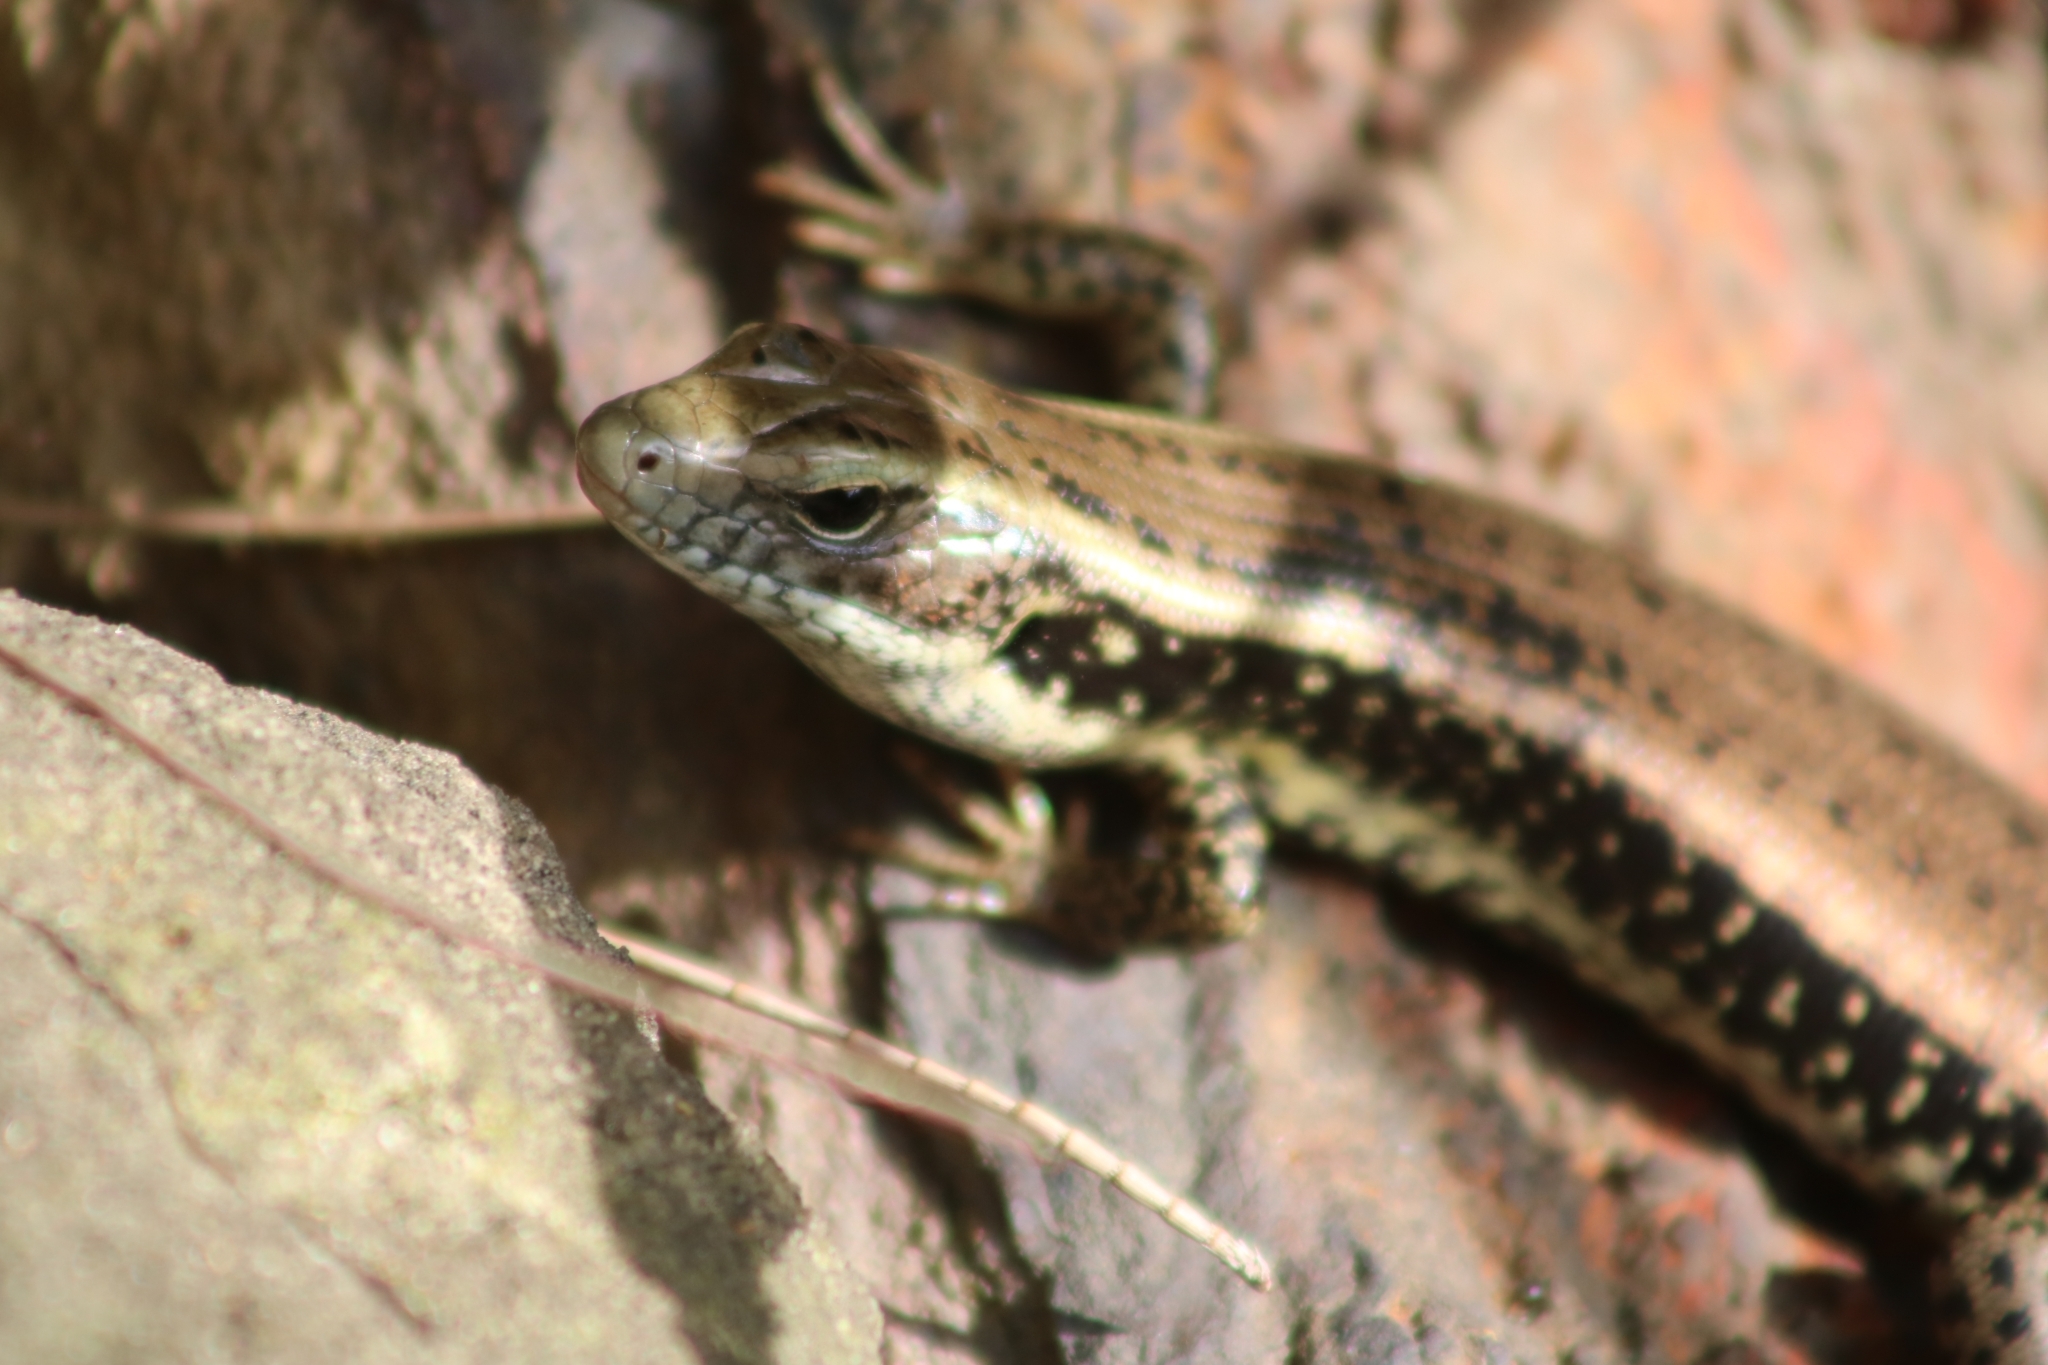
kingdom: Animalia
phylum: Chordata
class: Squamata
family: Scincidae
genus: Eulamprus
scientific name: Eulamprus quoyii
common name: Eastern water skink
